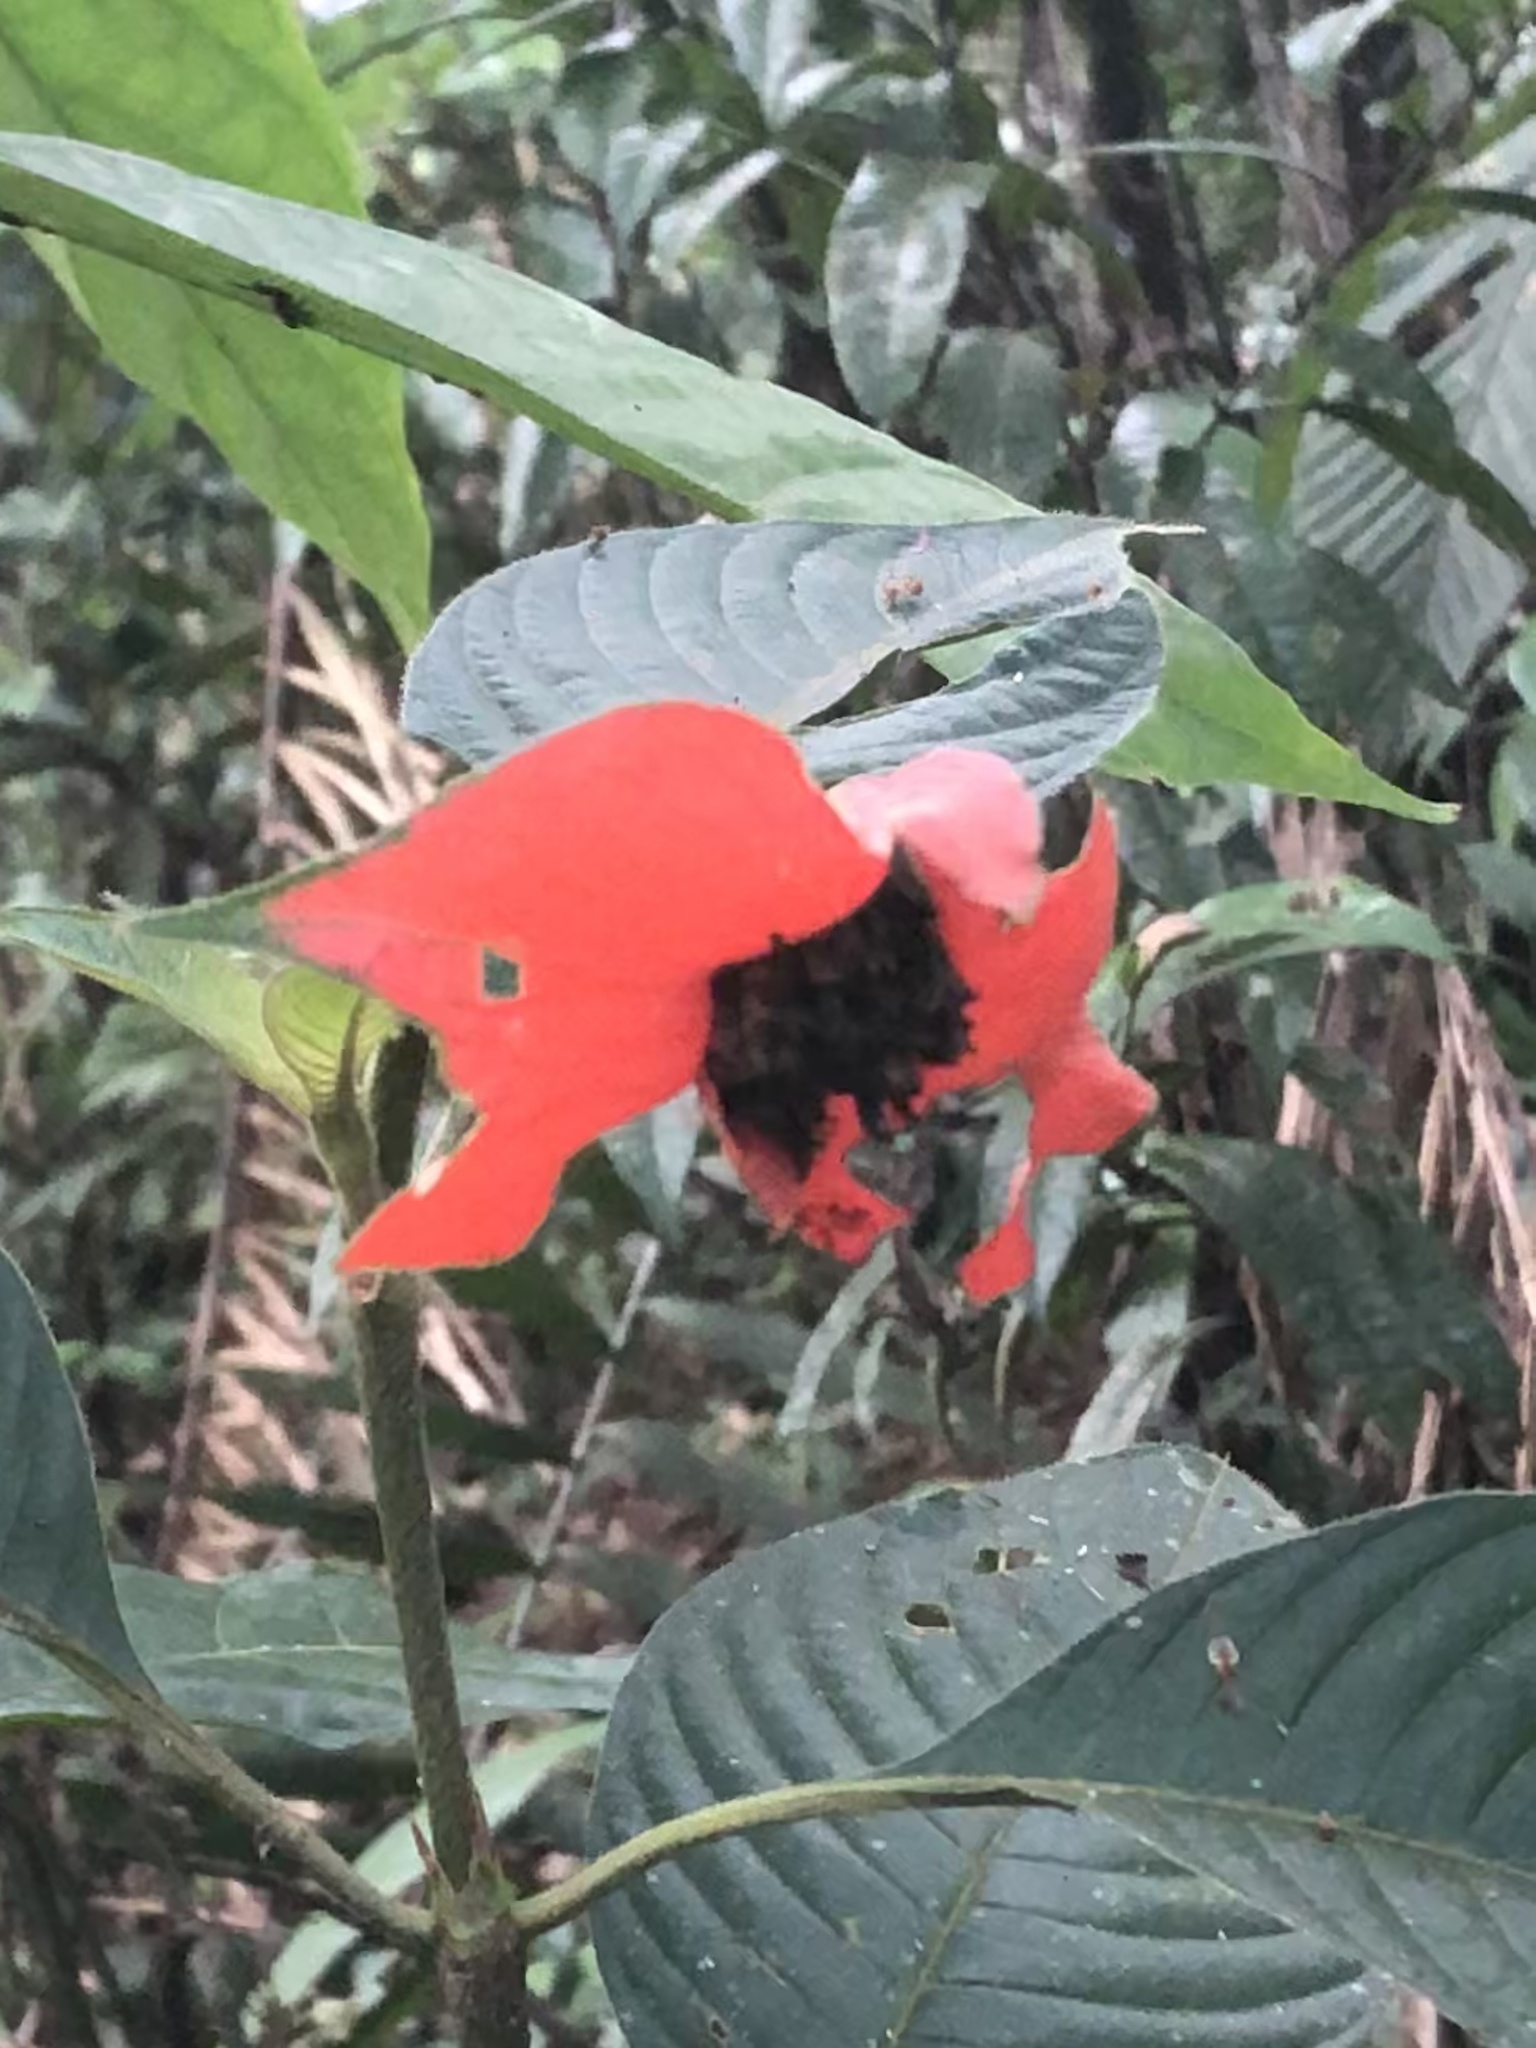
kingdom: Plantae
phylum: Tracheophyta
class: Magnoliopsida
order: Gentianales
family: Rubiaceae
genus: Palicourea
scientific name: Palicourea tomentosa
